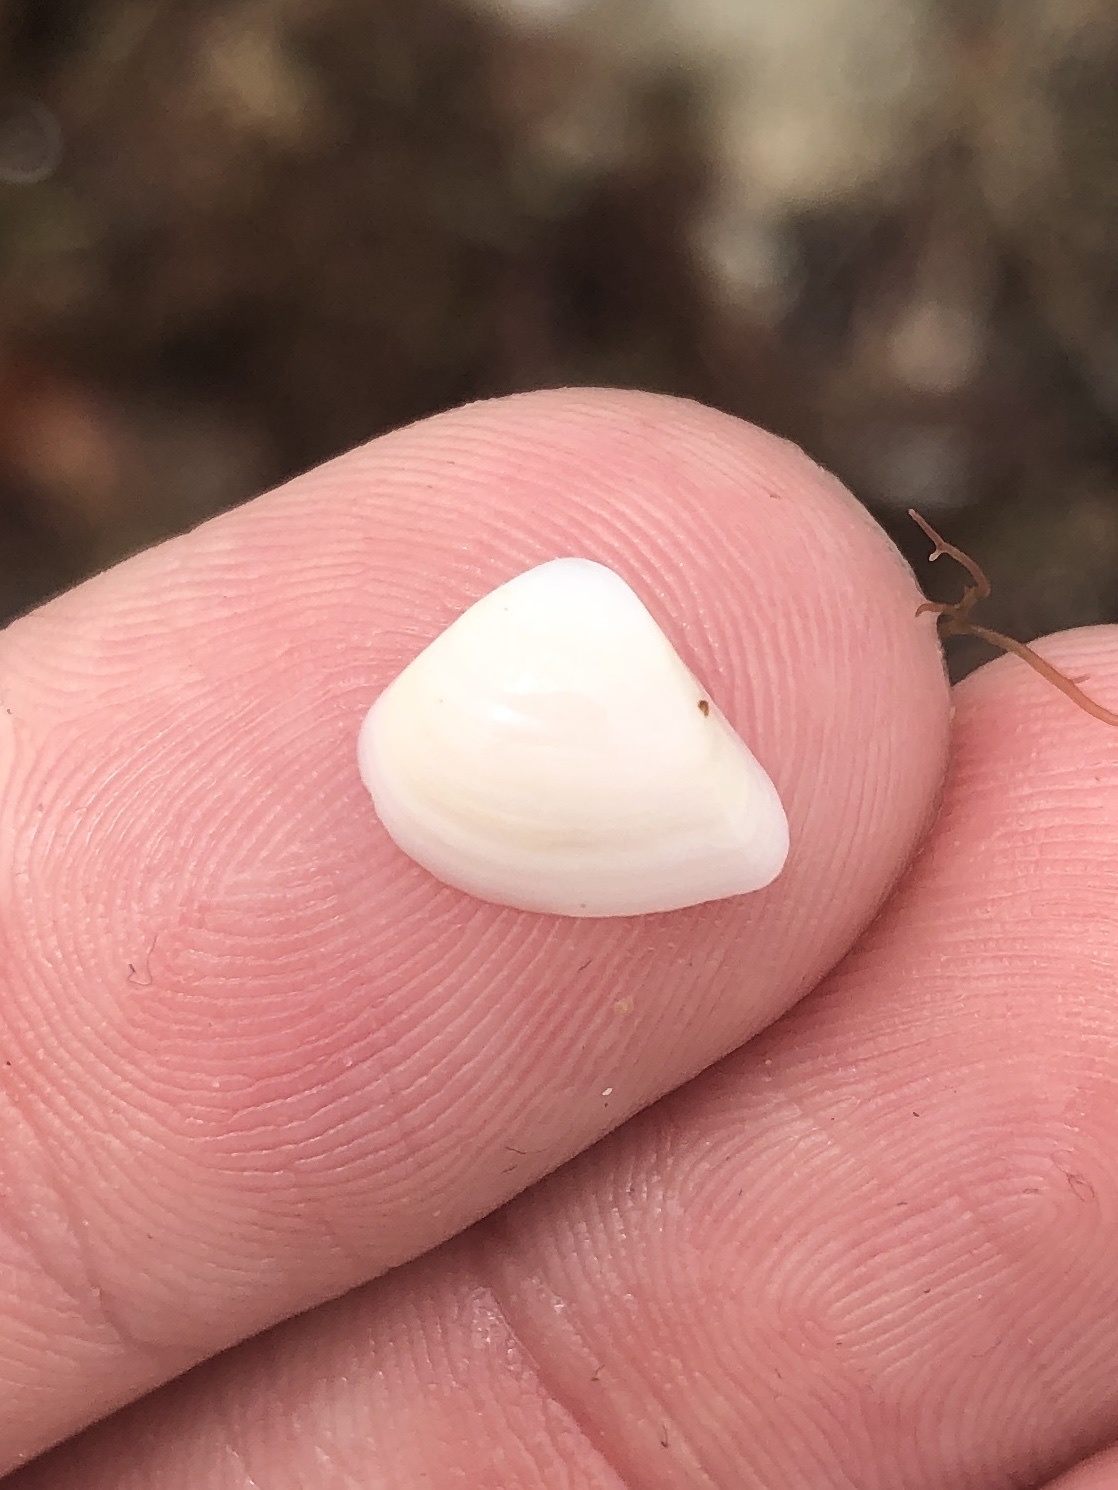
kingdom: Animalia
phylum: Mollusca
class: Bivalvia
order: Venerida
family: Mactridae
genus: Mulinia
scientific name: Mulinia lateralis
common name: Dwarf surfclam
